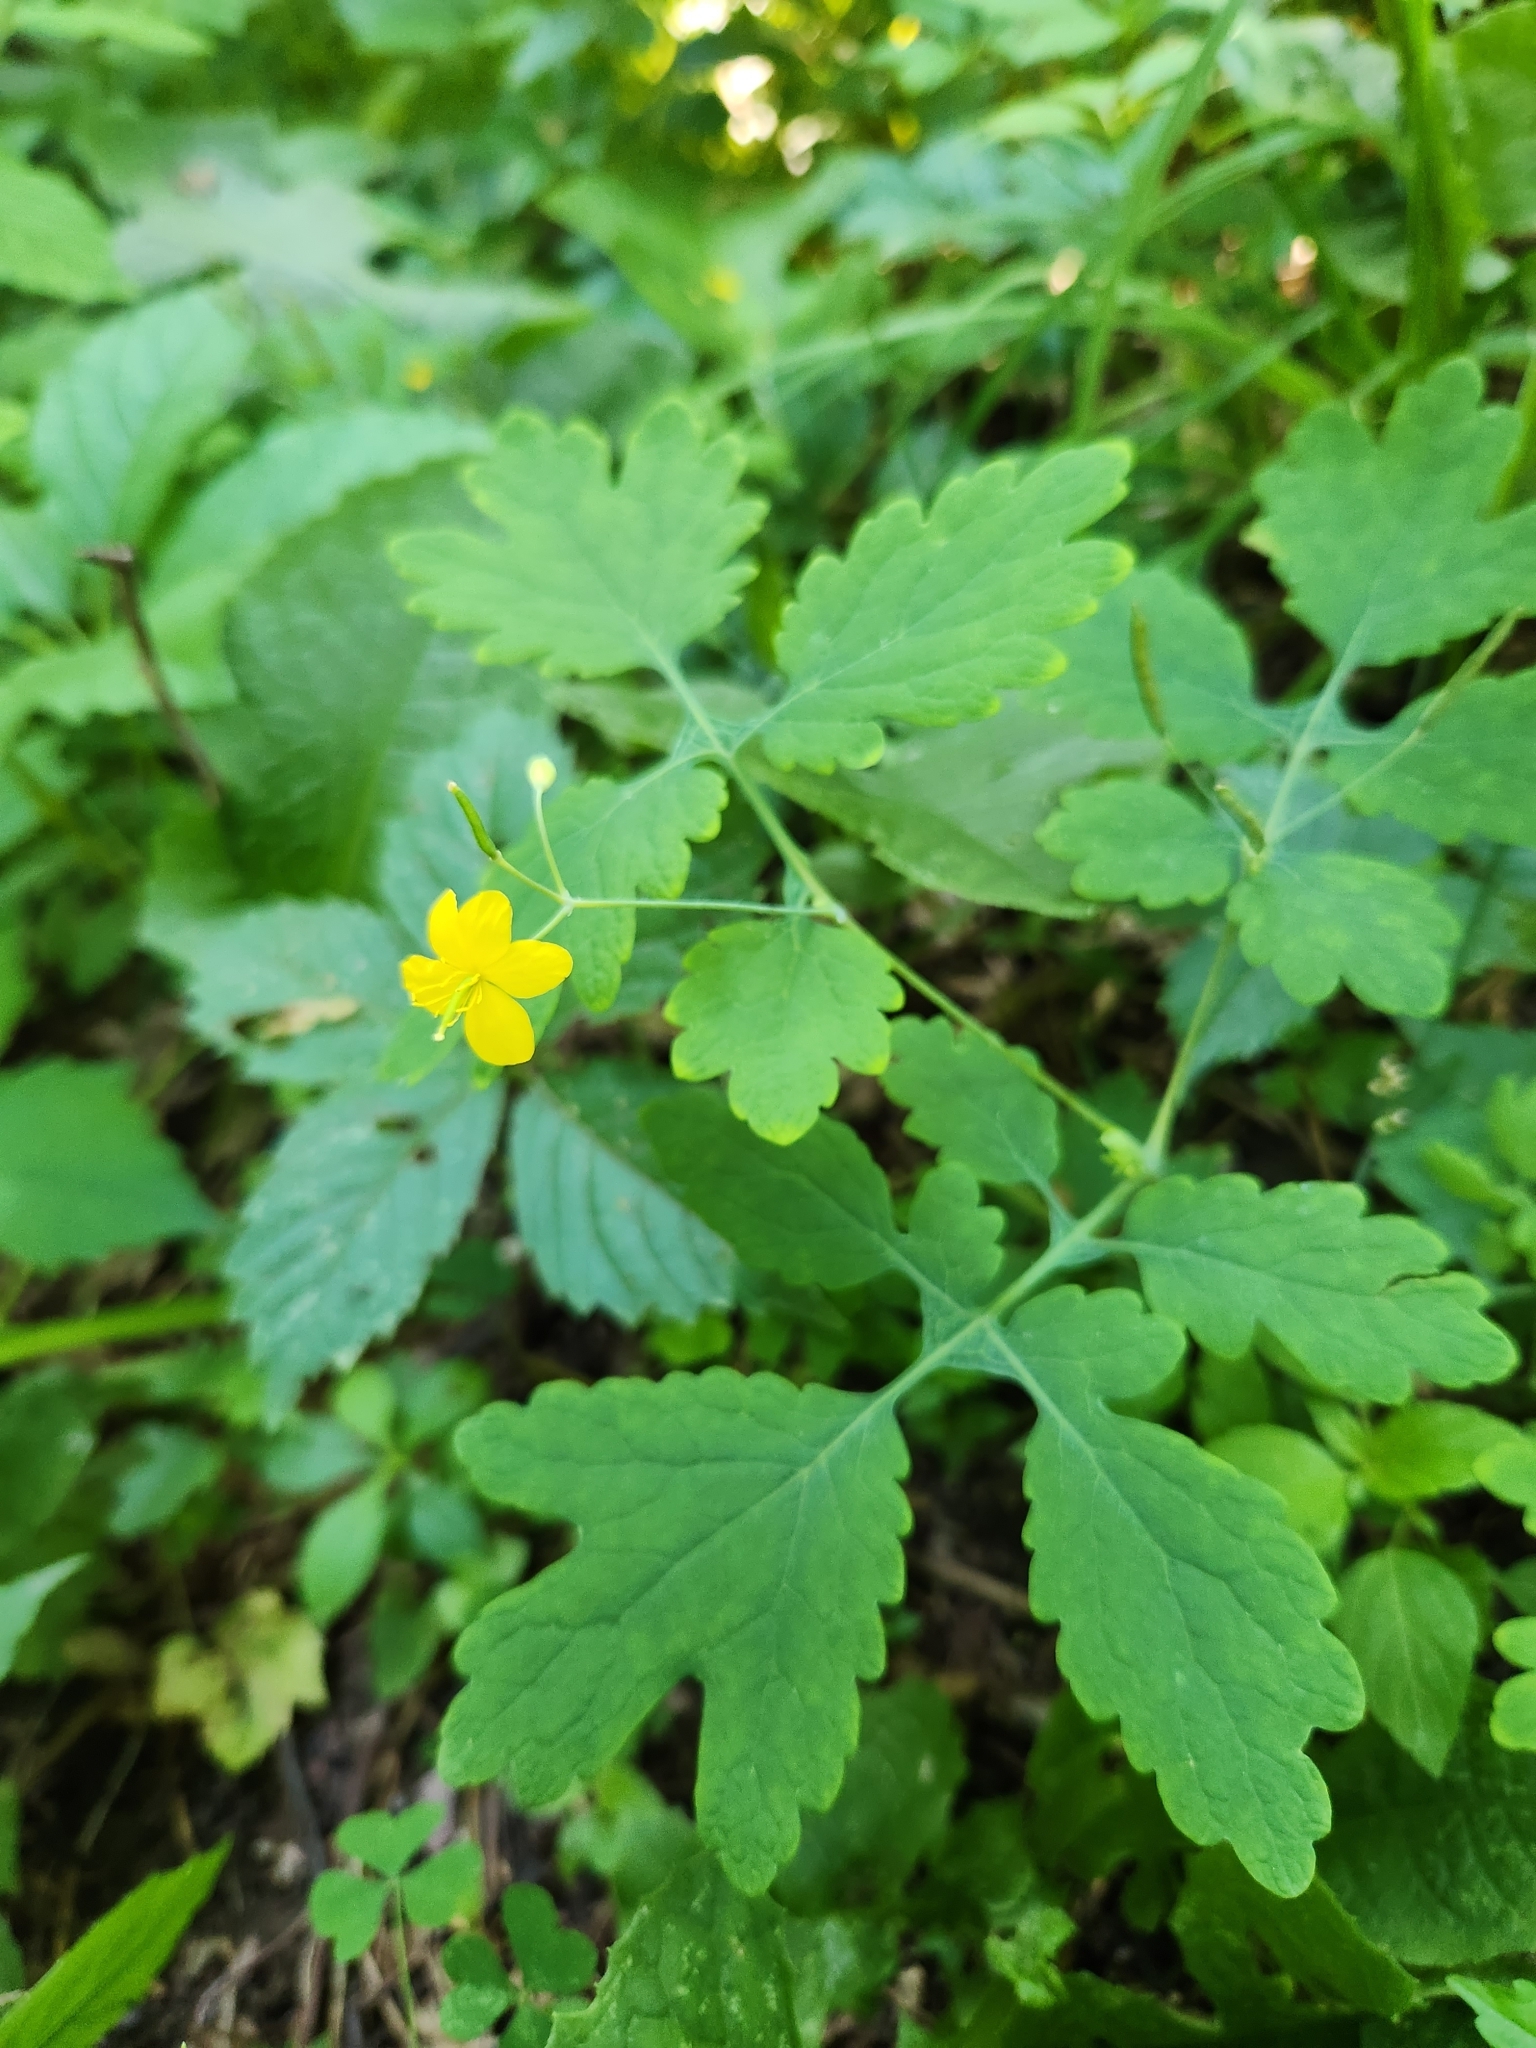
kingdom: Plantae
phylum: Tracheophyta
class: Magnoliopsida
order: Ranunculales
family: Papaveraceae
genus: Chelidonium
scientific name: Chelidonium majus
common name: Greater celandine
